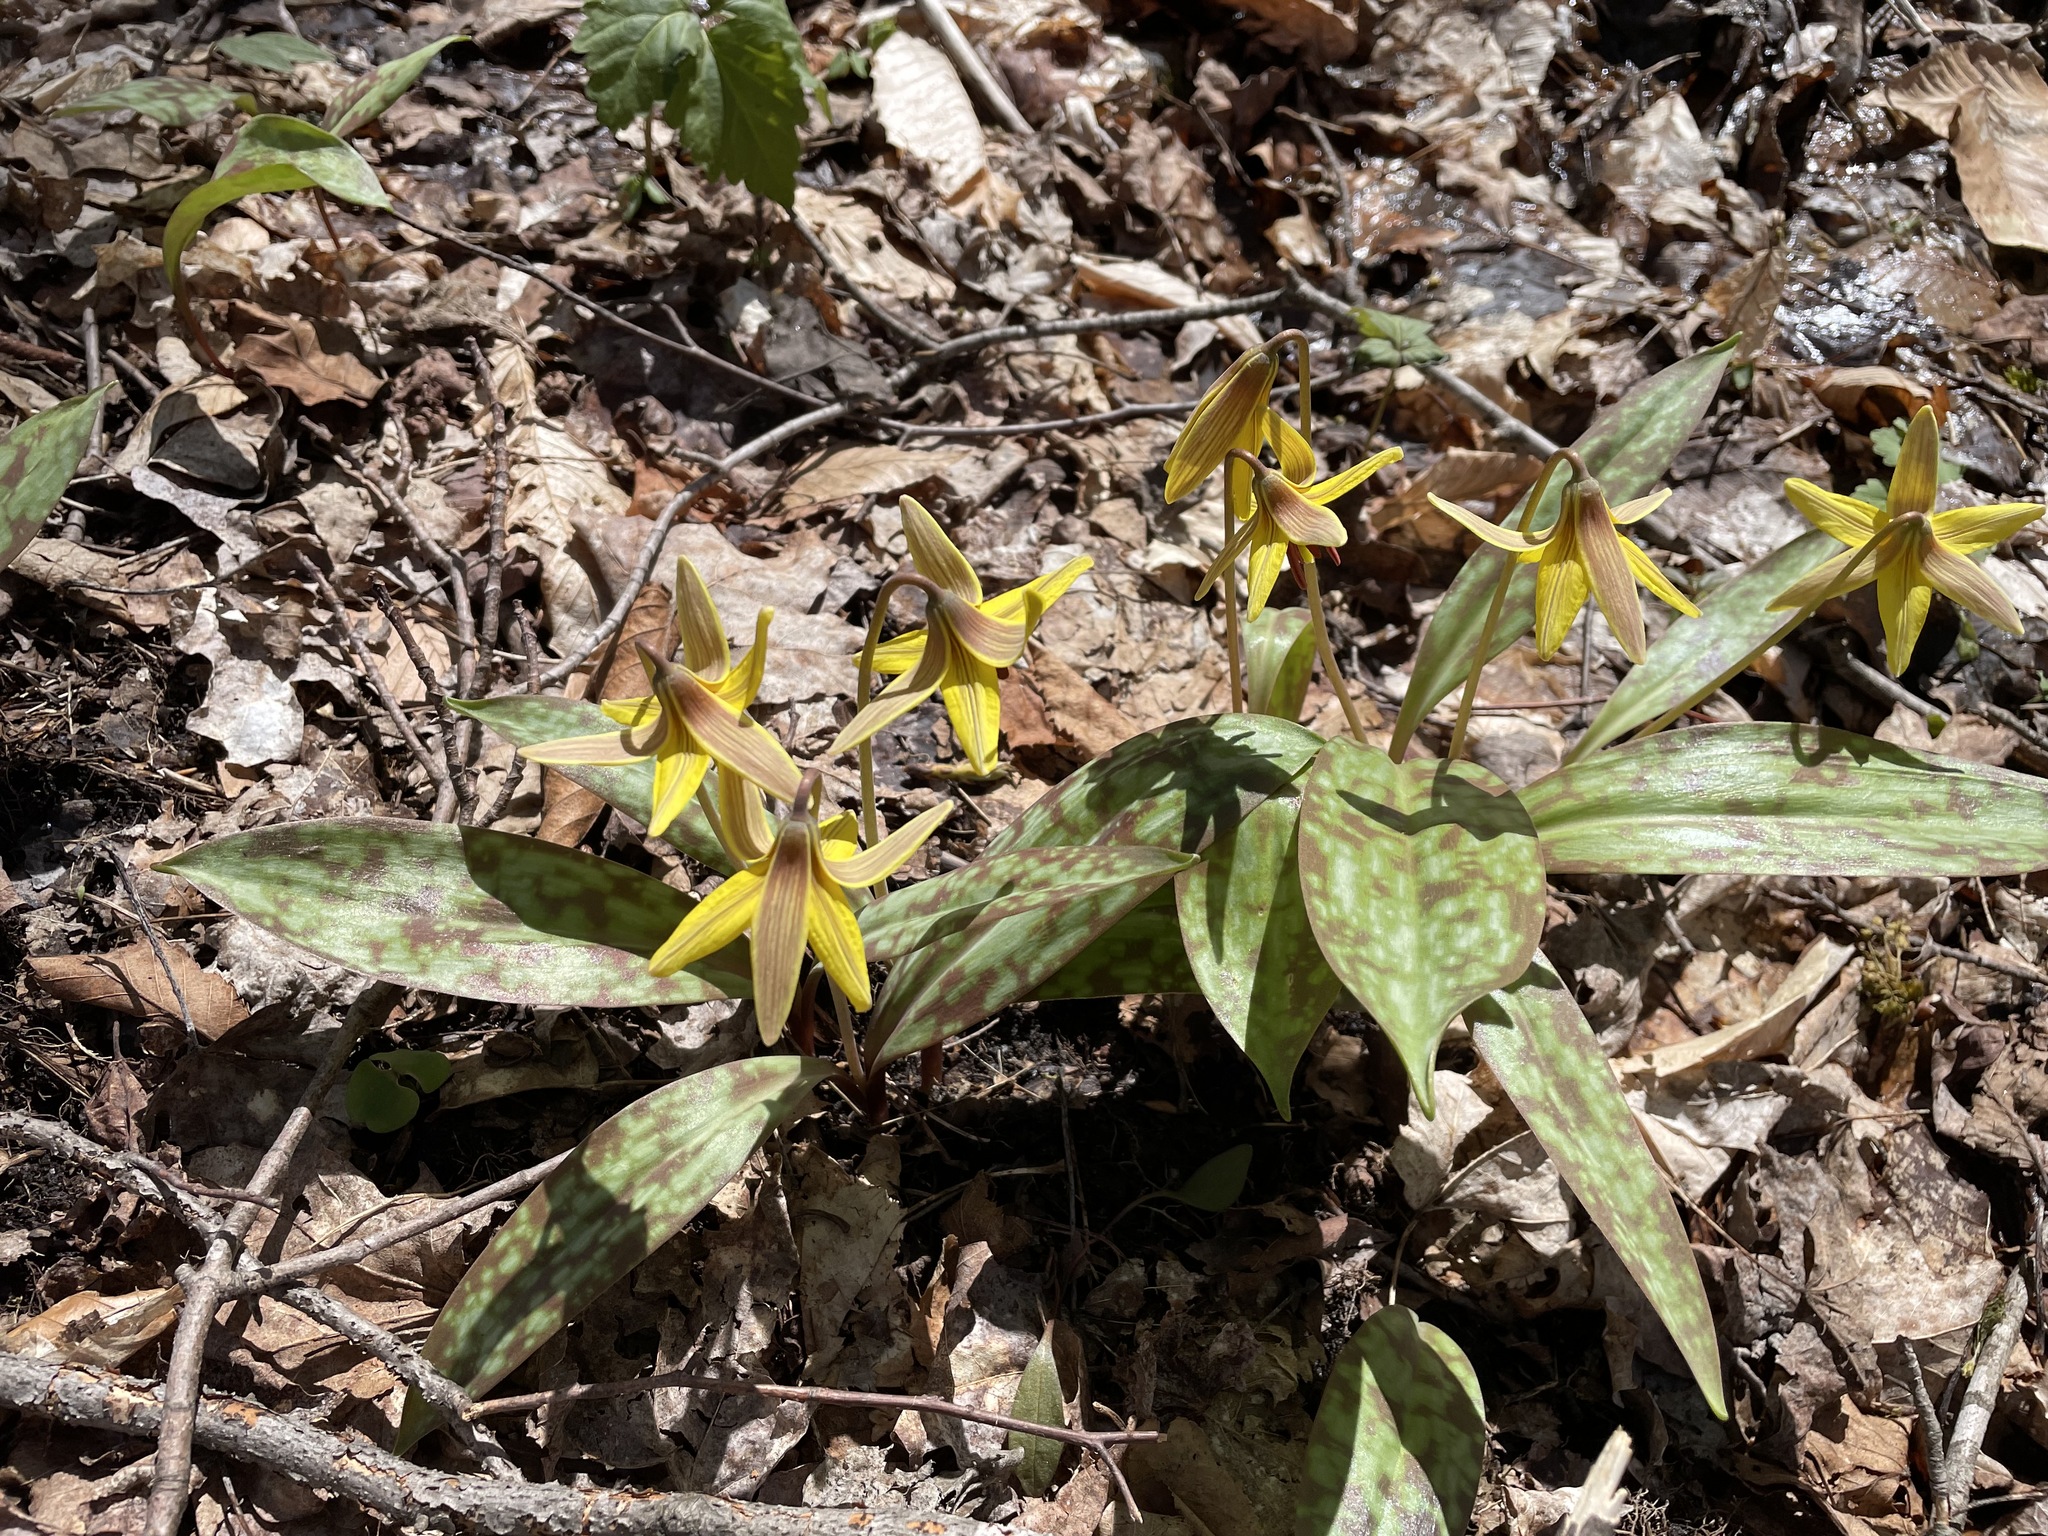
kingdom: Plantae
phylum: Tracheophyta
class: Liliopsida
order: Liliales
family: Liliaceae
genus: Erythronium
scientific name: Erythronium americanum
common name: Yellow adder's-tongue
